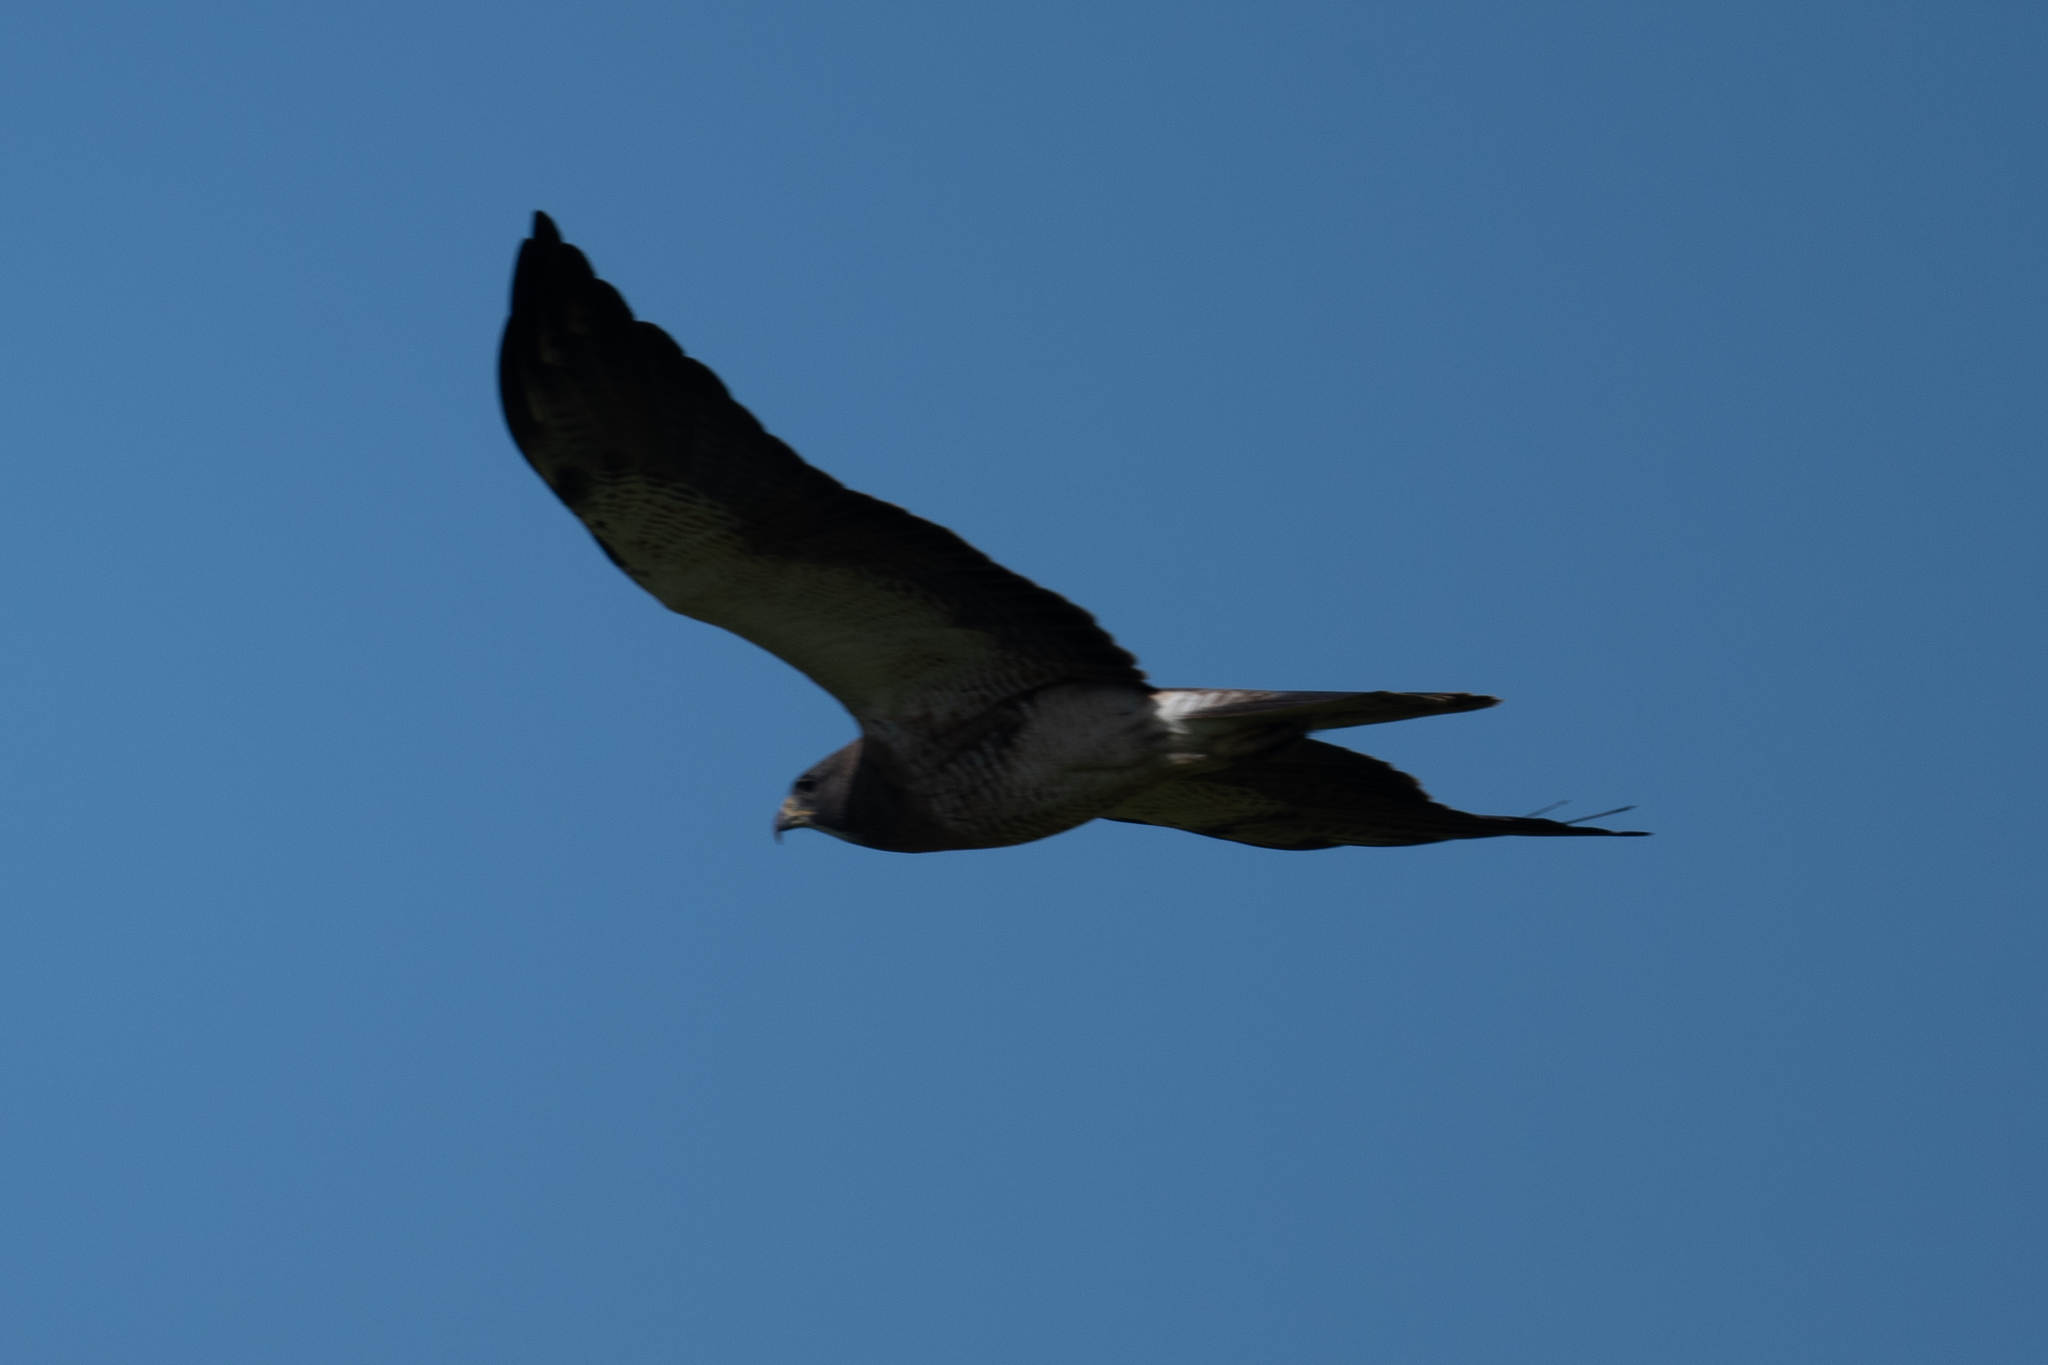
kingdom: Animalia
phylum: Chordata
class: Aves
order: Accipitriformes
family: Accipitridae
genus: Buteo
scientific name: Buteo swainsoni
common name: Swainson's hawk
